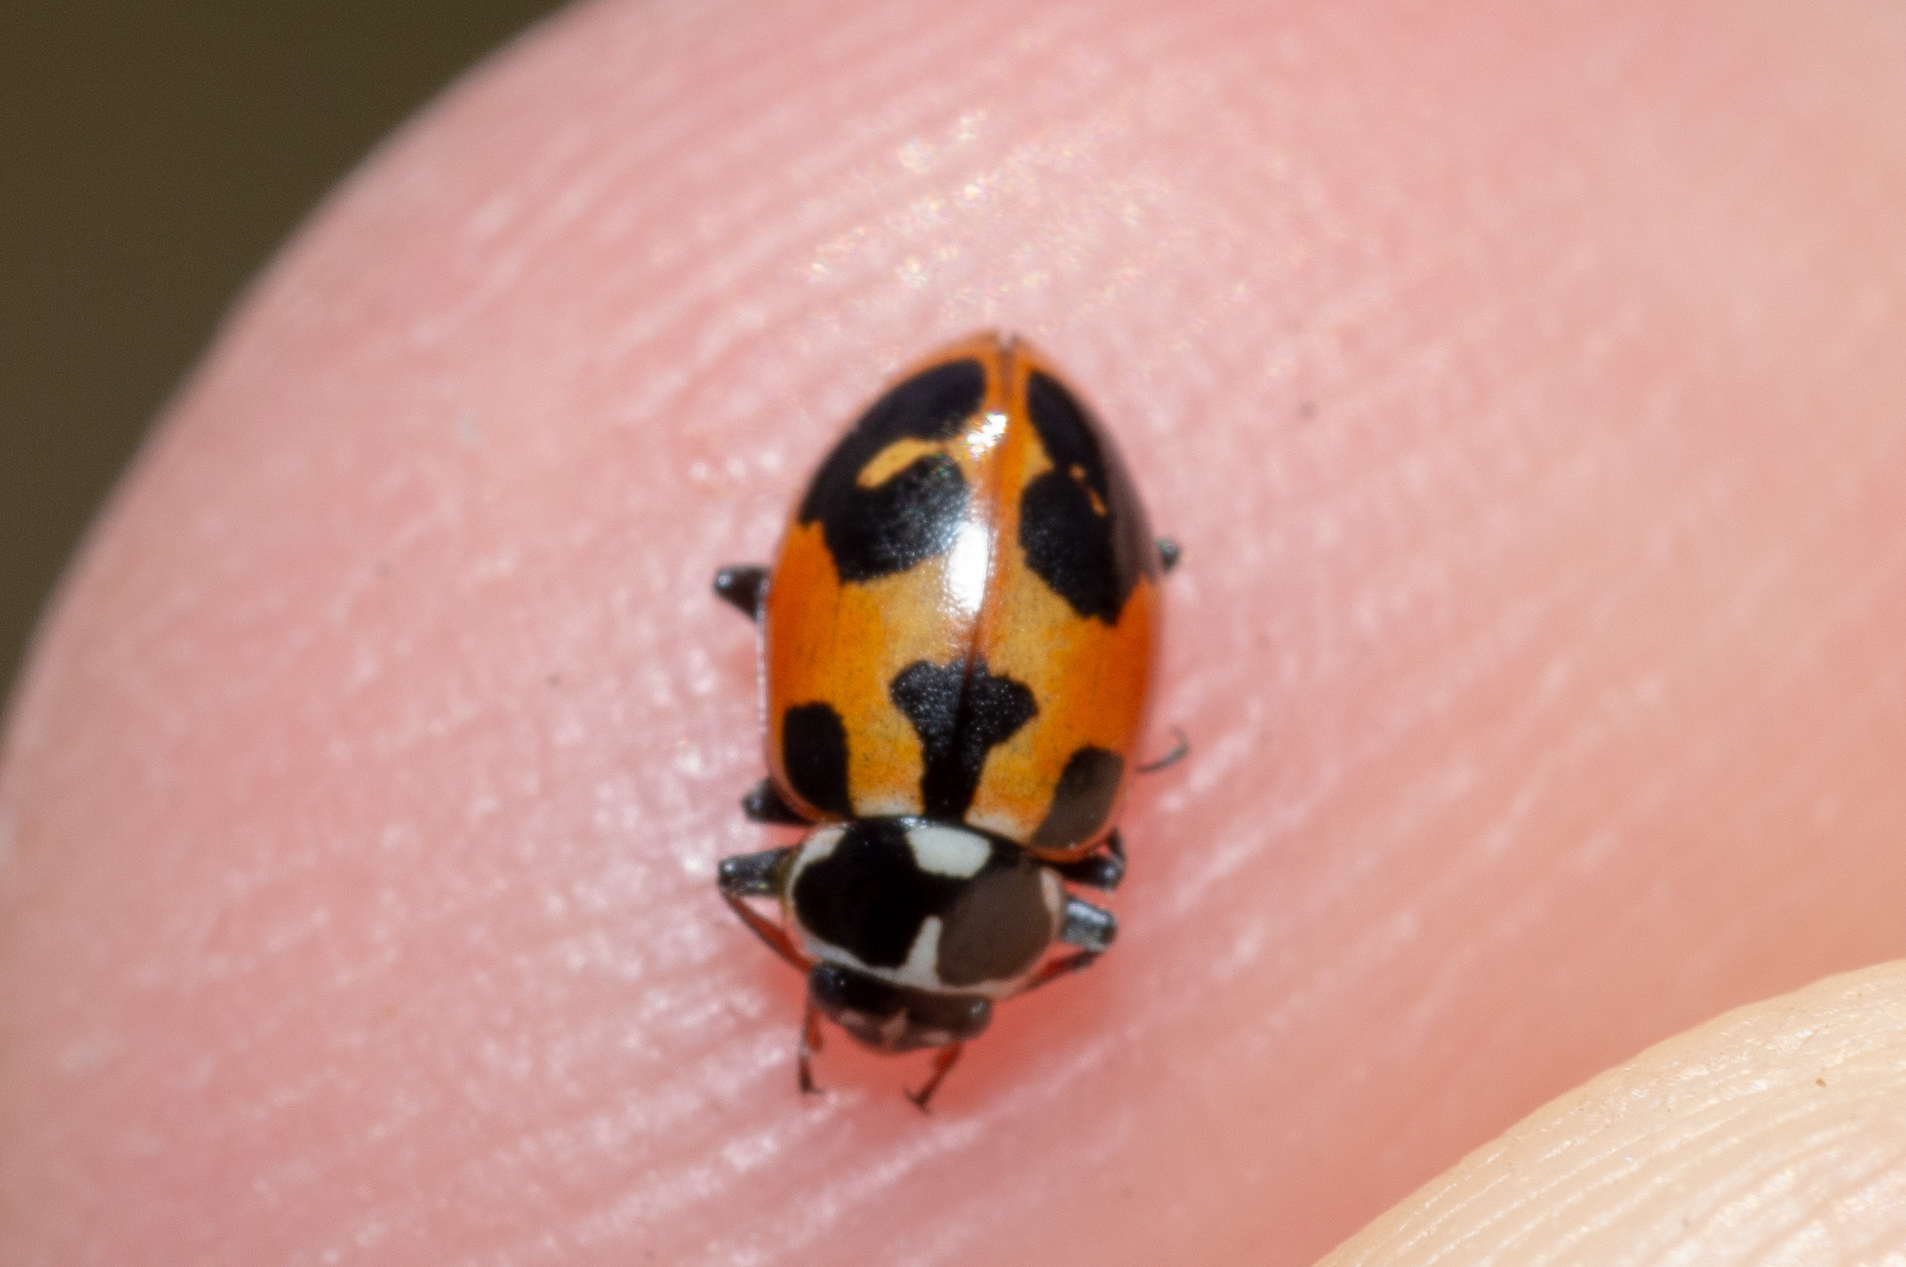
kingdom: Animalia
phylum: Arthropoda
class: Insecta
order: Coleoptera
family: Coccinellidae
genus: Hippodamia
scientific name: Hippodamia parenthesis
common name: Parenthesis lady beetle
